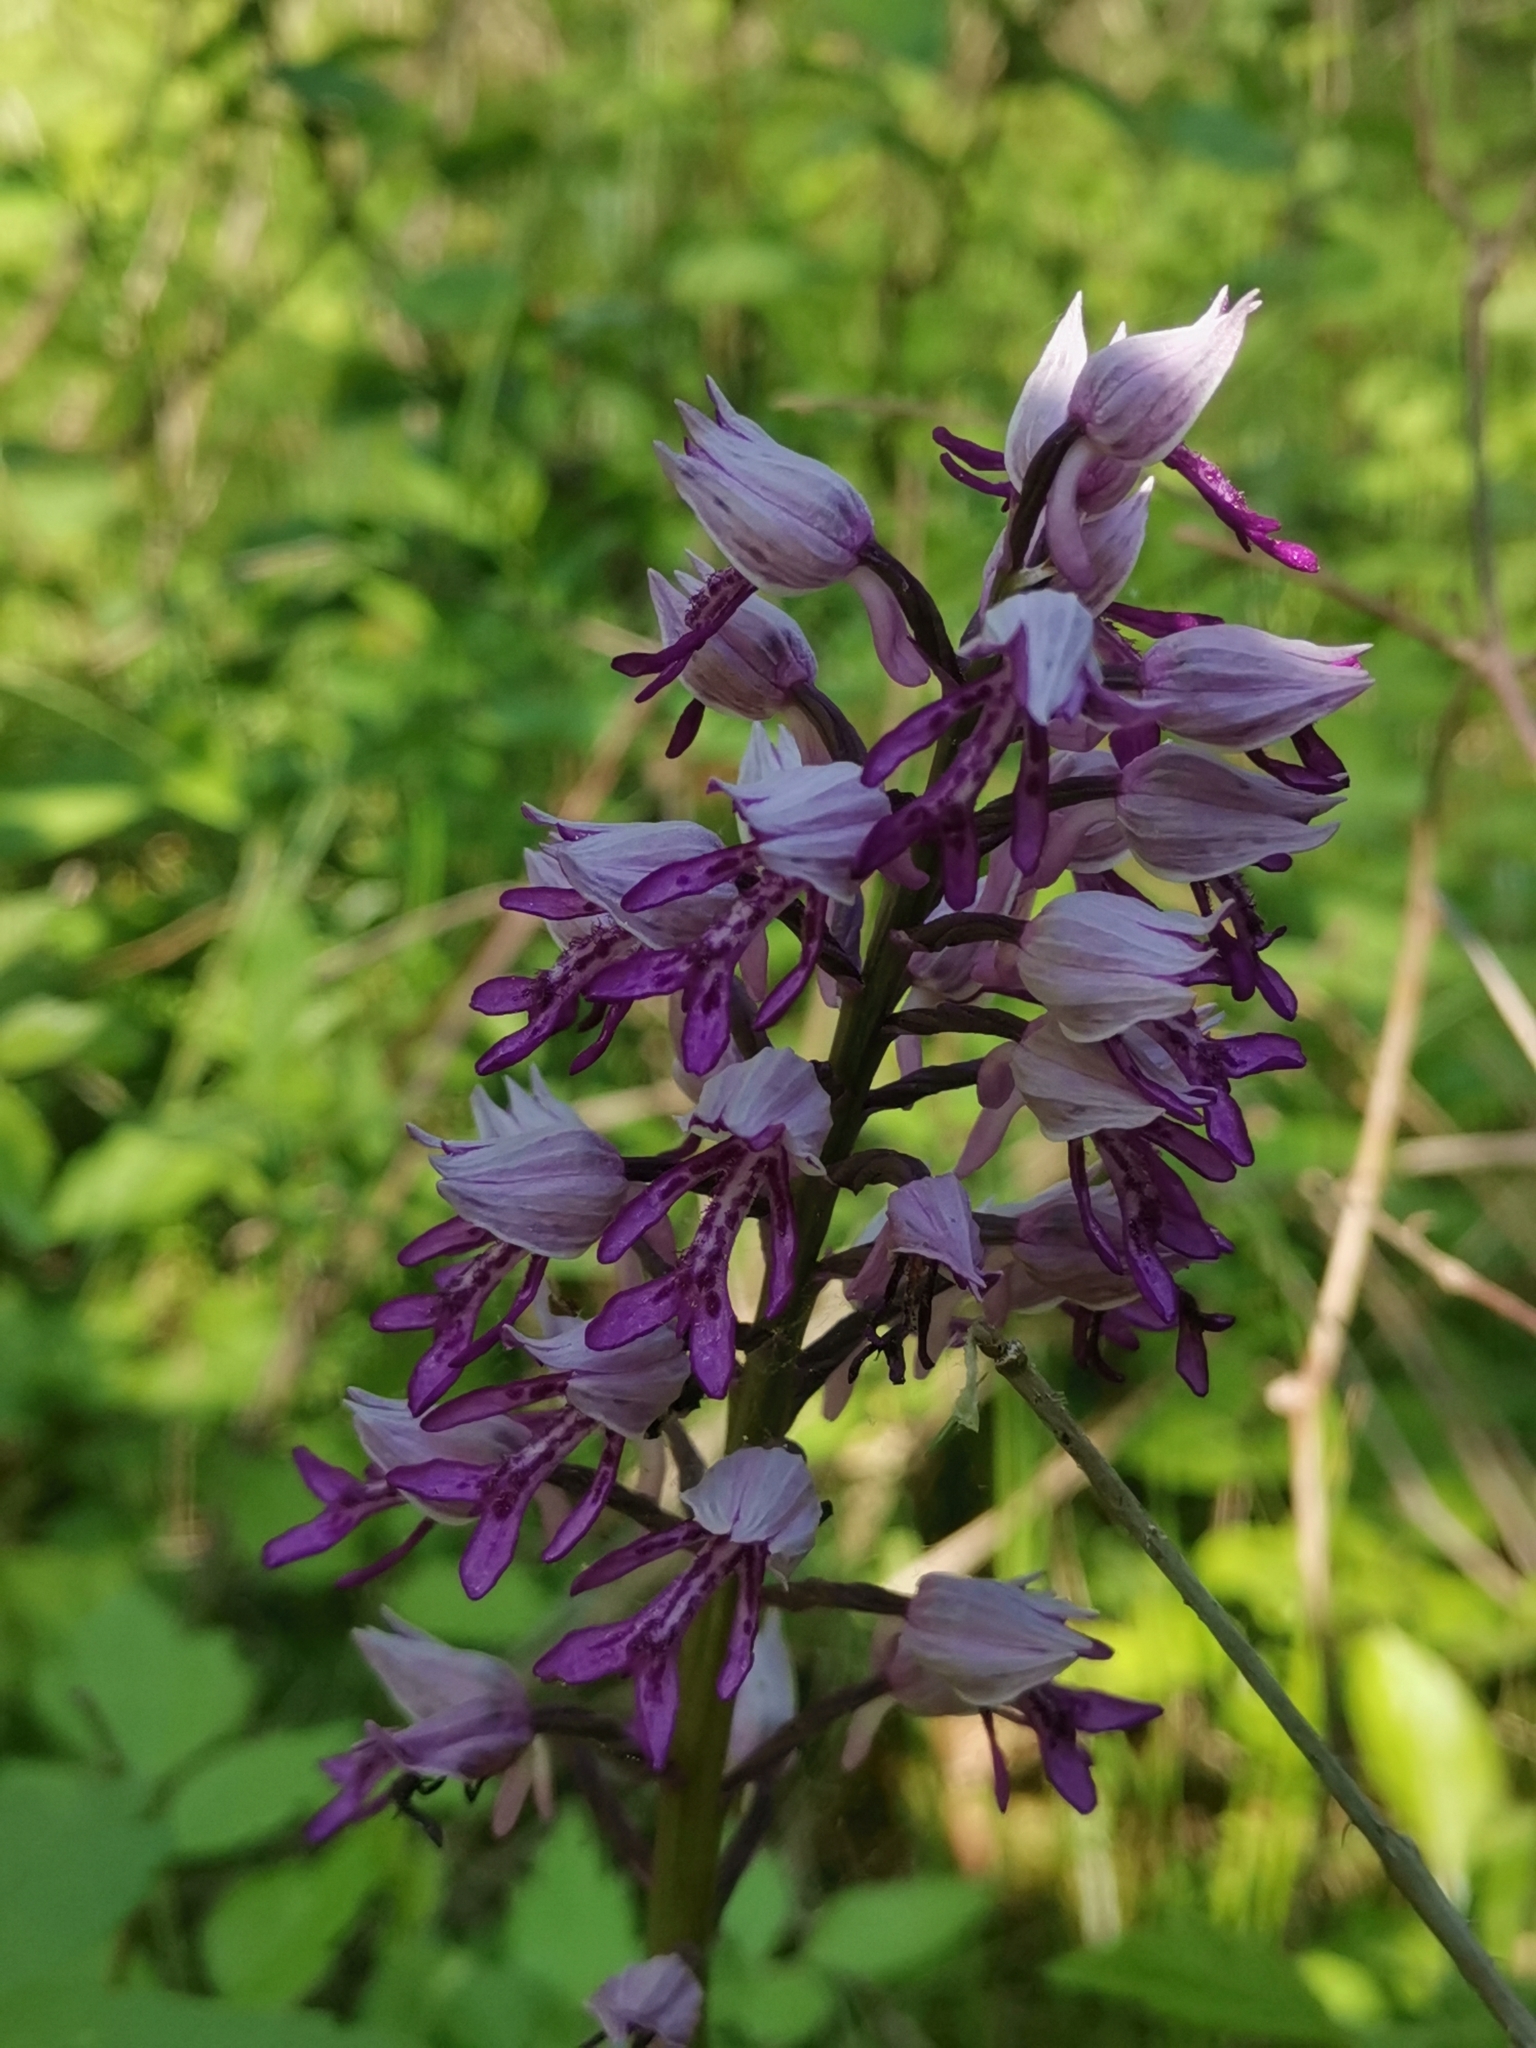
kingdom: Plantae
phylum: Tracheophyta
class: Liliopsida
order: Asparagales
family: Orchidaceae
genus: Orchis
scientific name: Orchis militaris
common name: Military orchid
